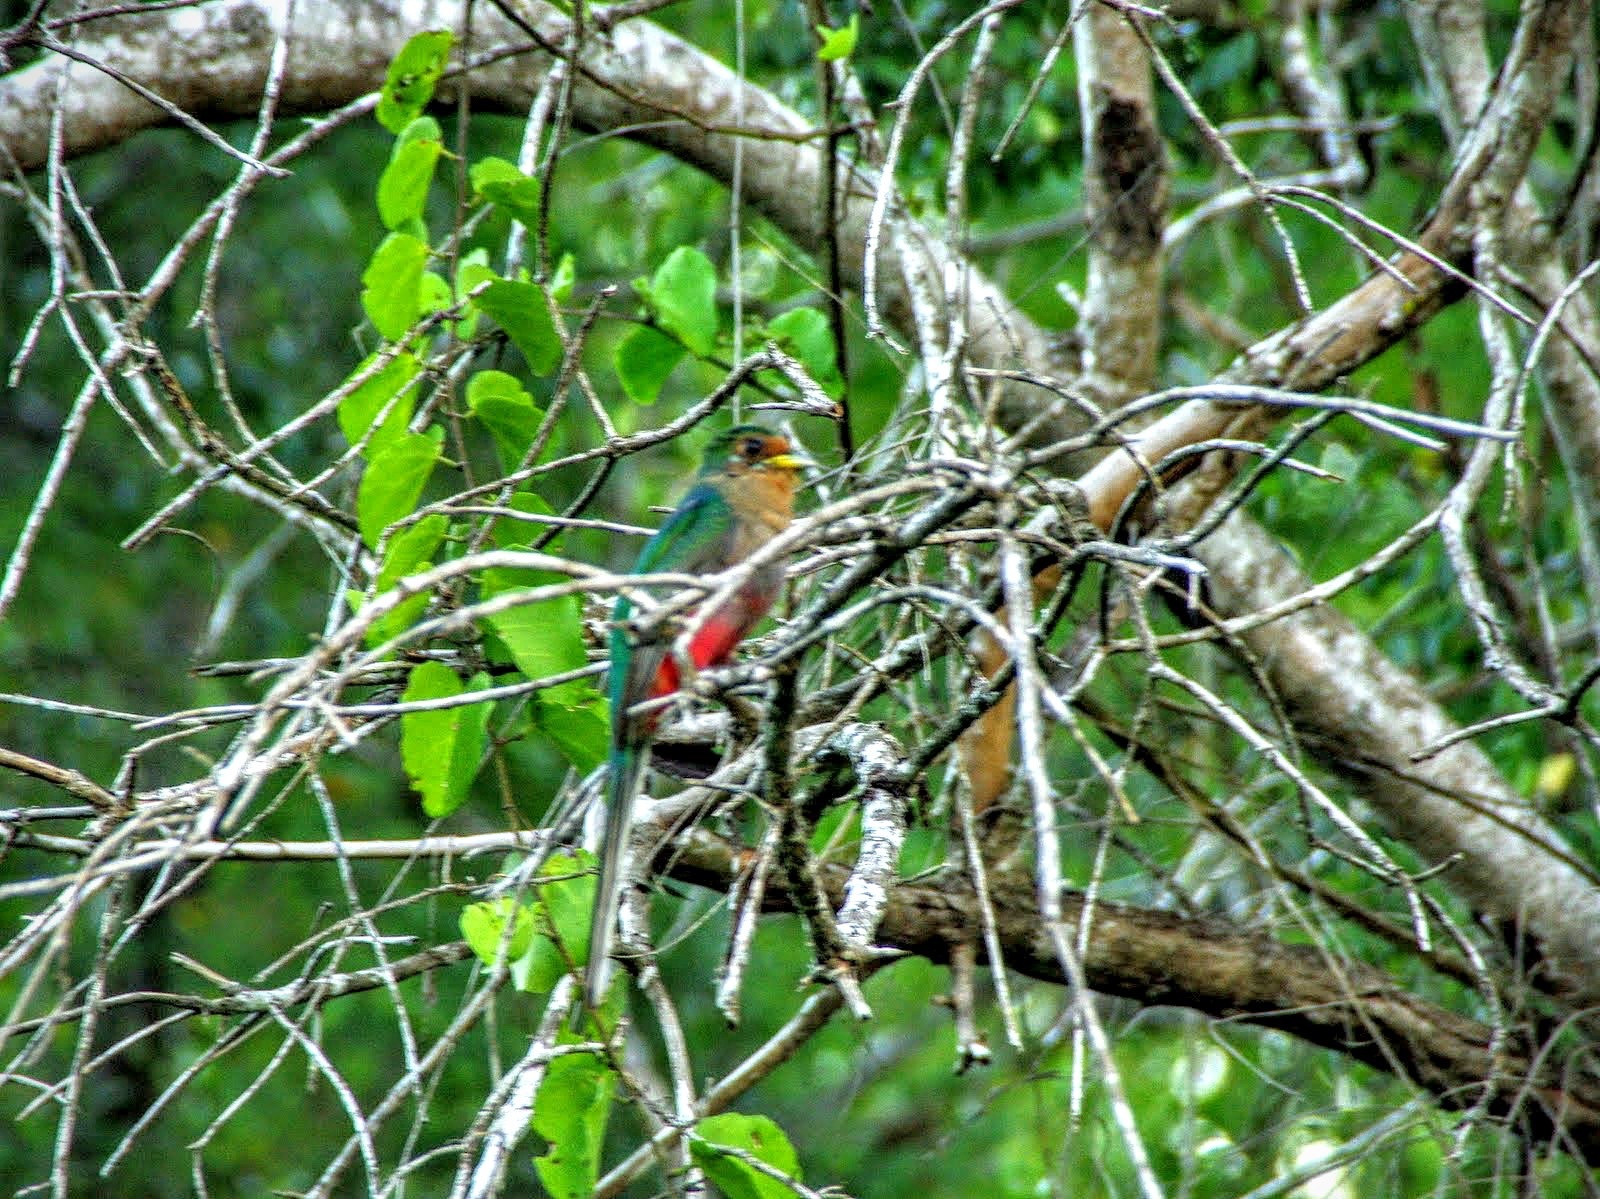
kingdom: Animalia
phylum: Chordata
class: Aves
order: Trogoniformes
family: Trogonidae
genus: Apaloderma
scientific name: Apaloderma narina
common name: Narina trogon
